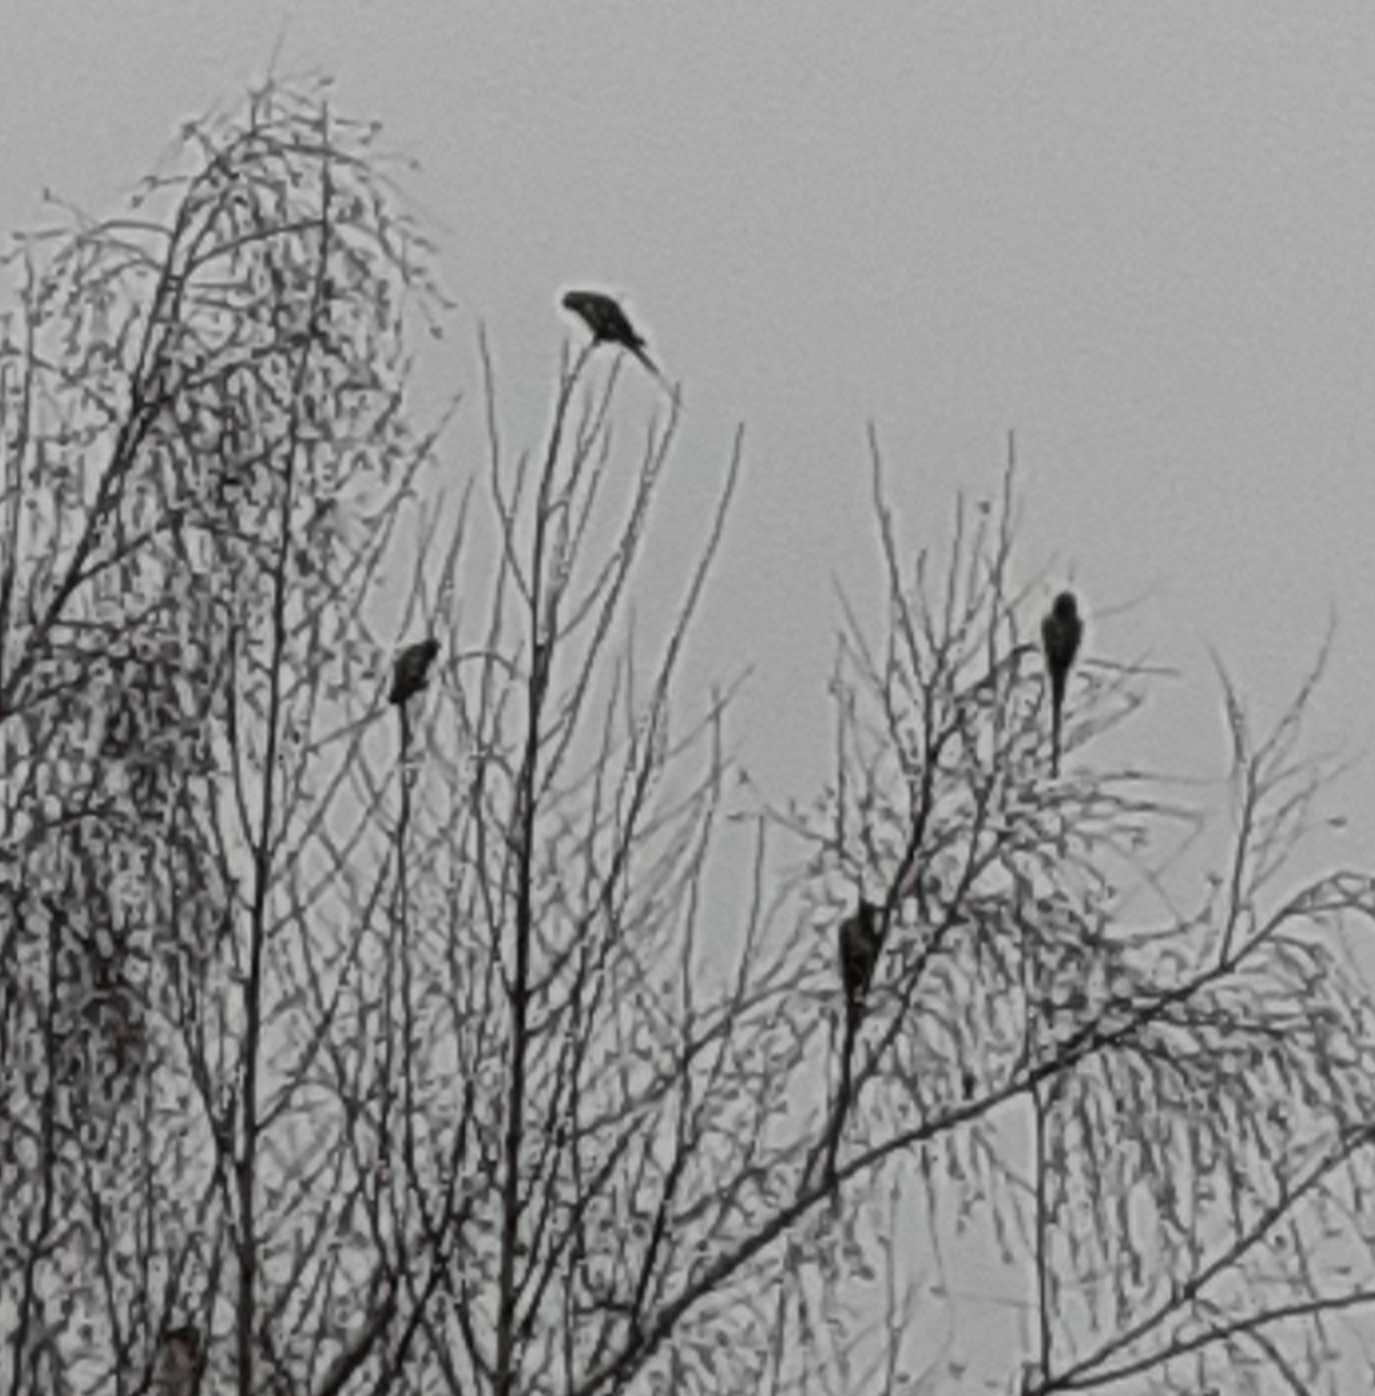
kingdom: Animalia
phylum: Chordata
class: Aves
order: Psittaciformes
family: Psittacidae
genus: Psittacula
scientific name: Psittacula krameri
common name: Rose-ringed parakeet
